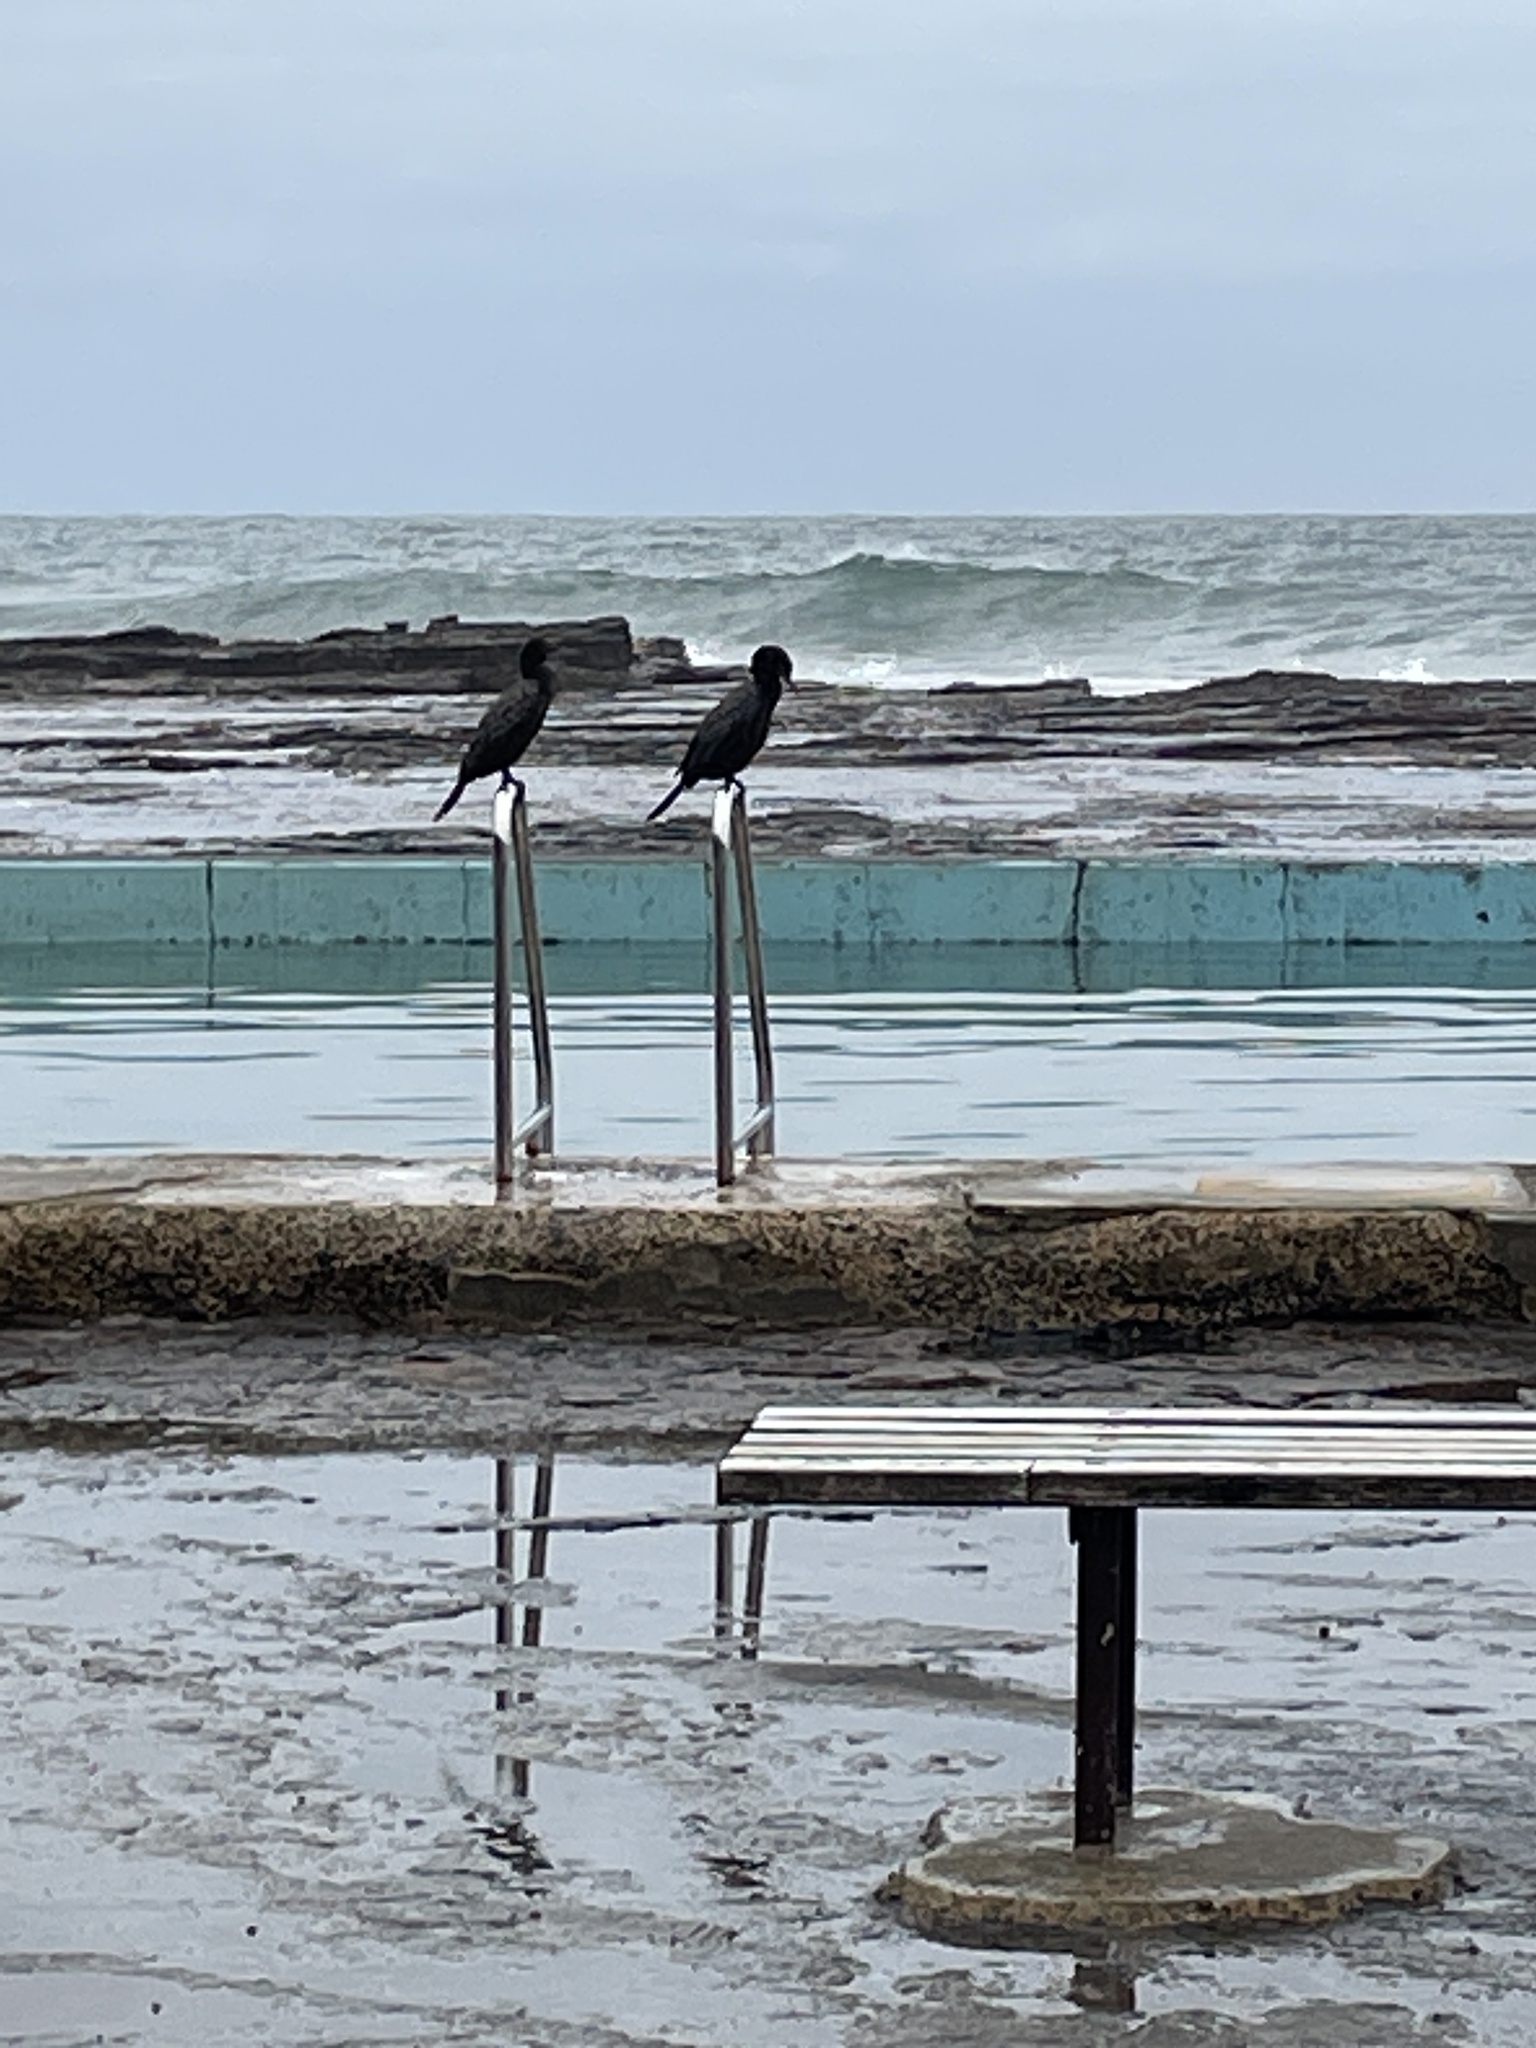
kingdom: Animalia
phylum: Chordata
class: Aves
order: Suliformes
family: Phalacrocoracidae
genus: Phalacrocorax
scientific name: Phalacrocorax sulcirostris
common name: Little black cormorant
